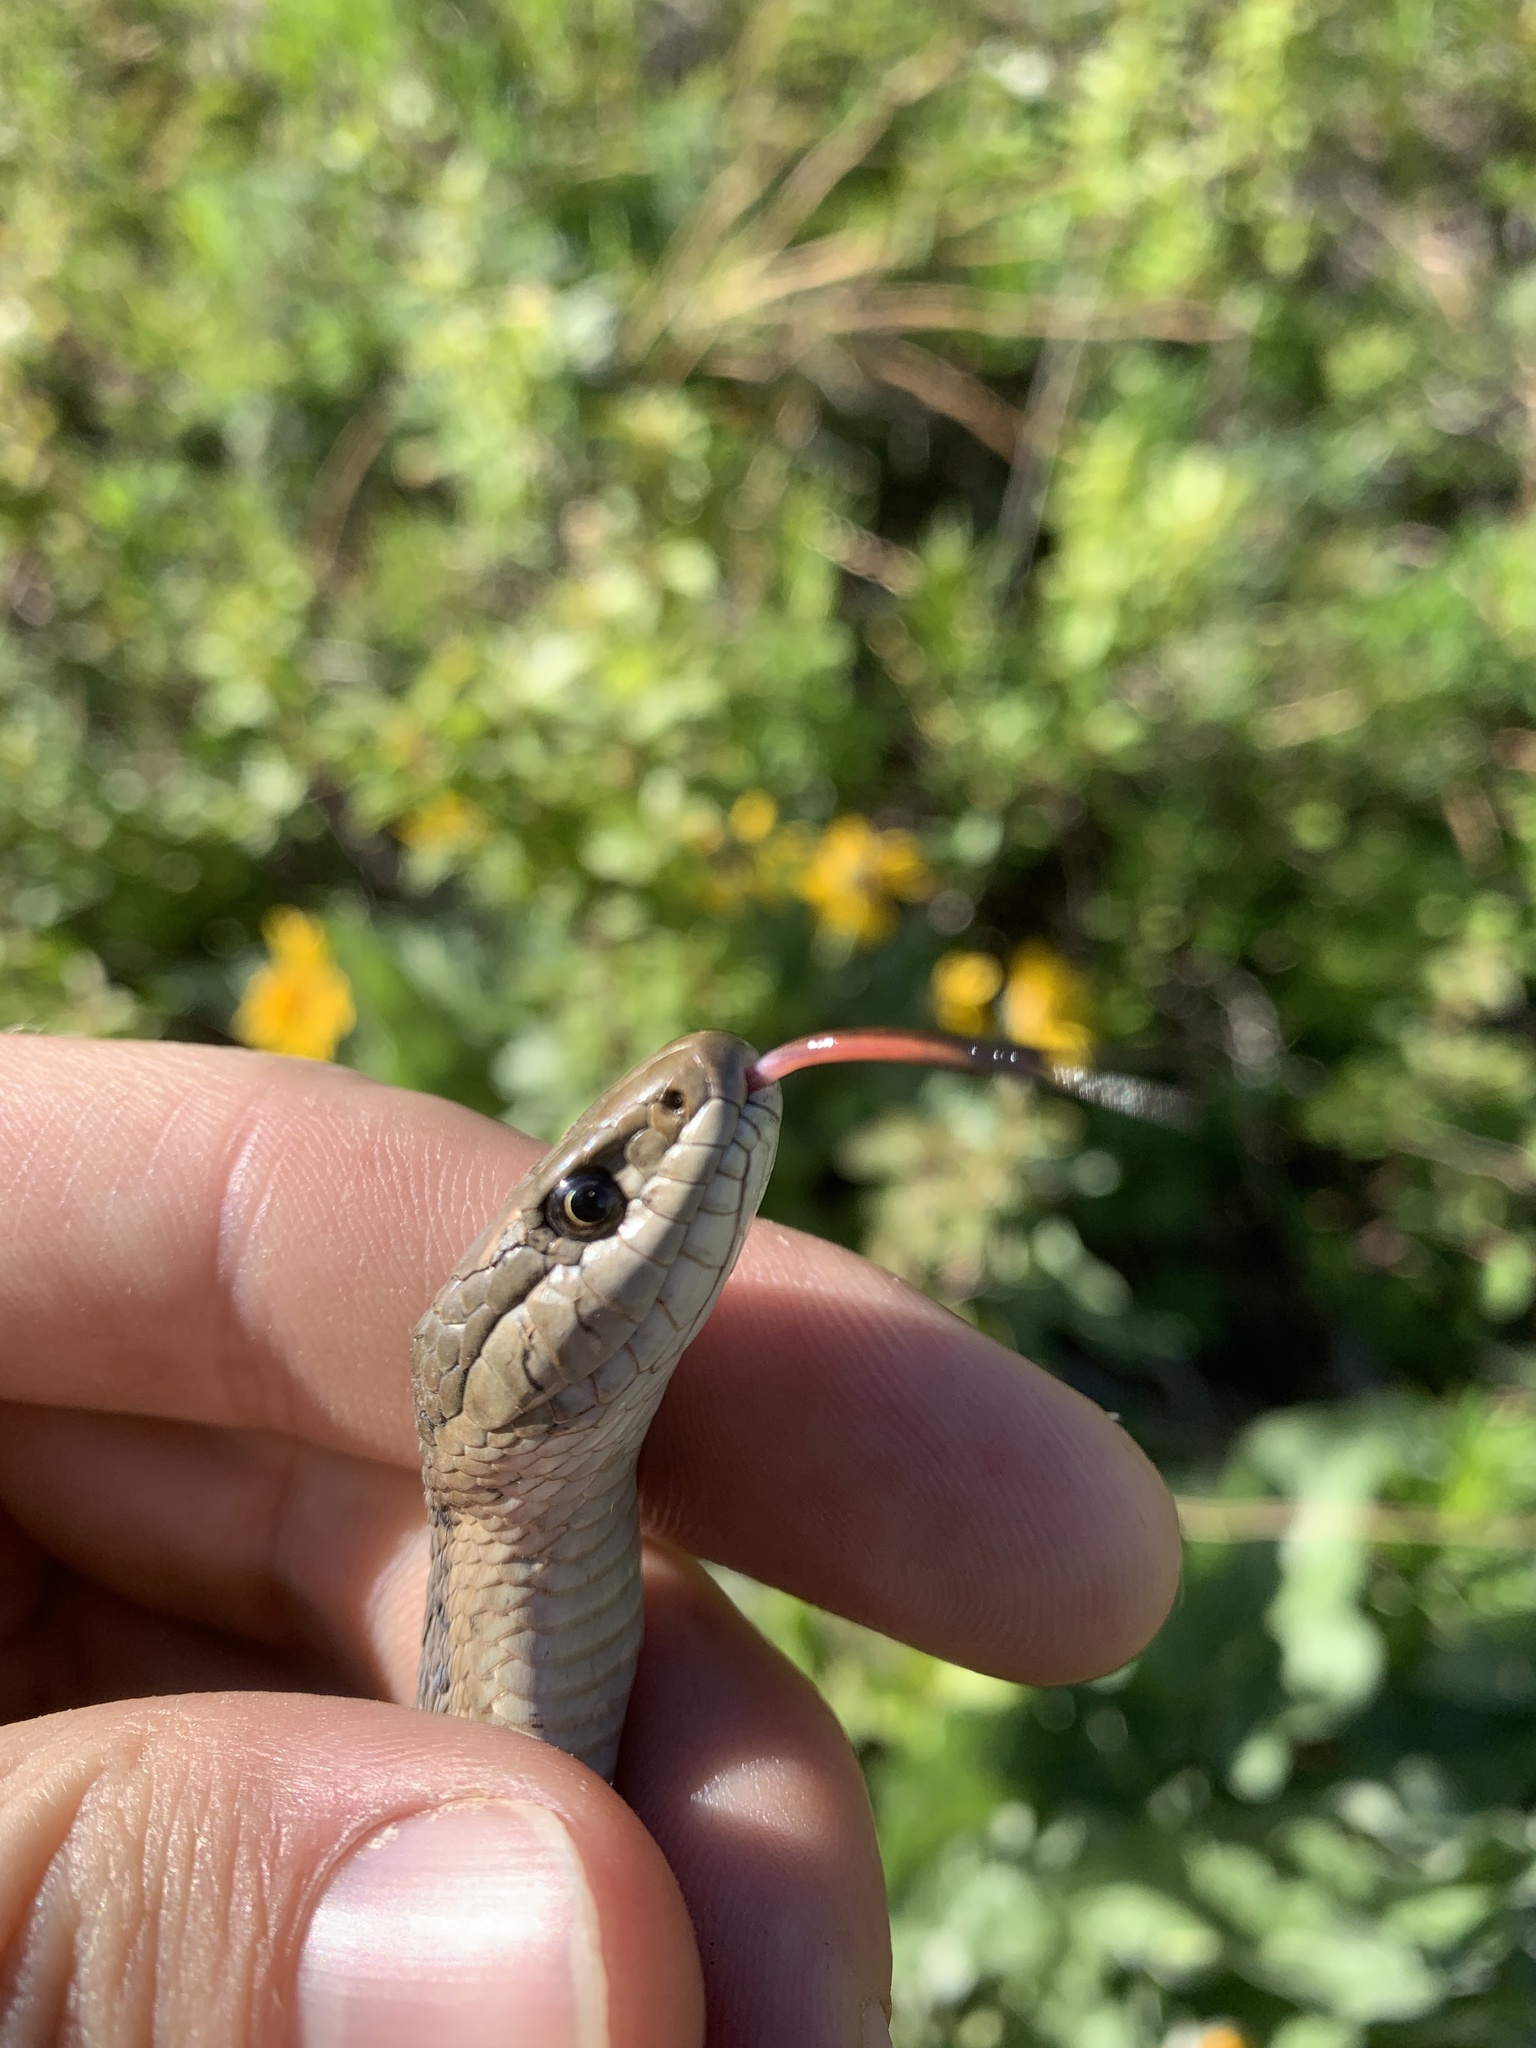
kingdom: Animalia
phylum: Chordata
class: Squamata
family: Colubridae
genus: Thamnophis
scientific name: Thamnophis elegans
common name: Western terrestrial garter snake
